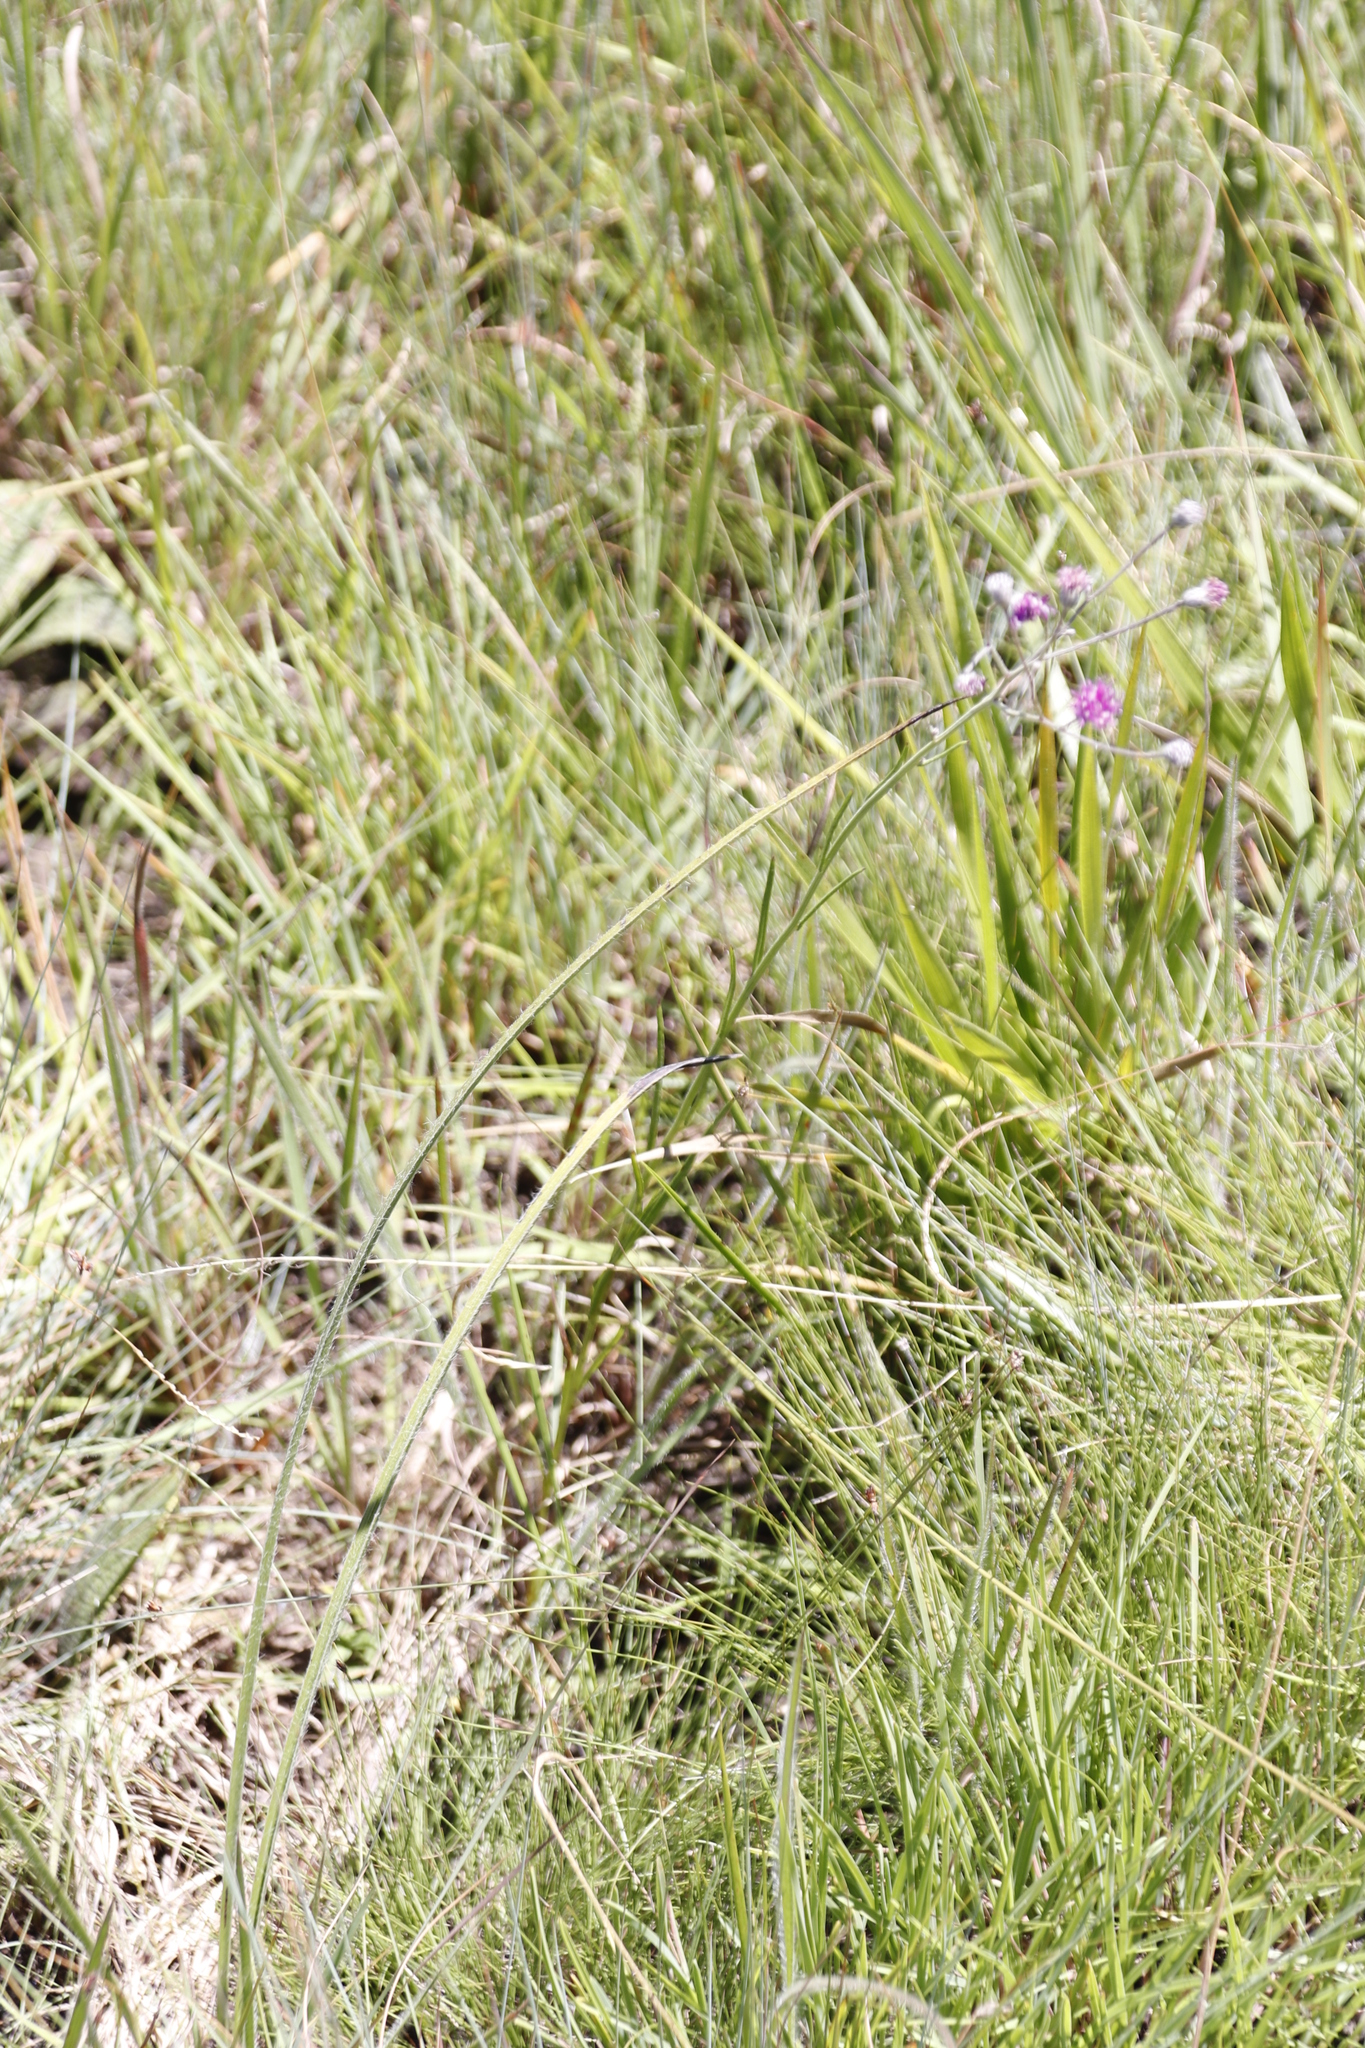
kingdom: Plantae
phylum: Tracheophyta
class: Magnoliopsida
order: Asterales
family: Asteraceae
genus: Hilliardiella
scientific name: Hilliardiella nudicaulis
